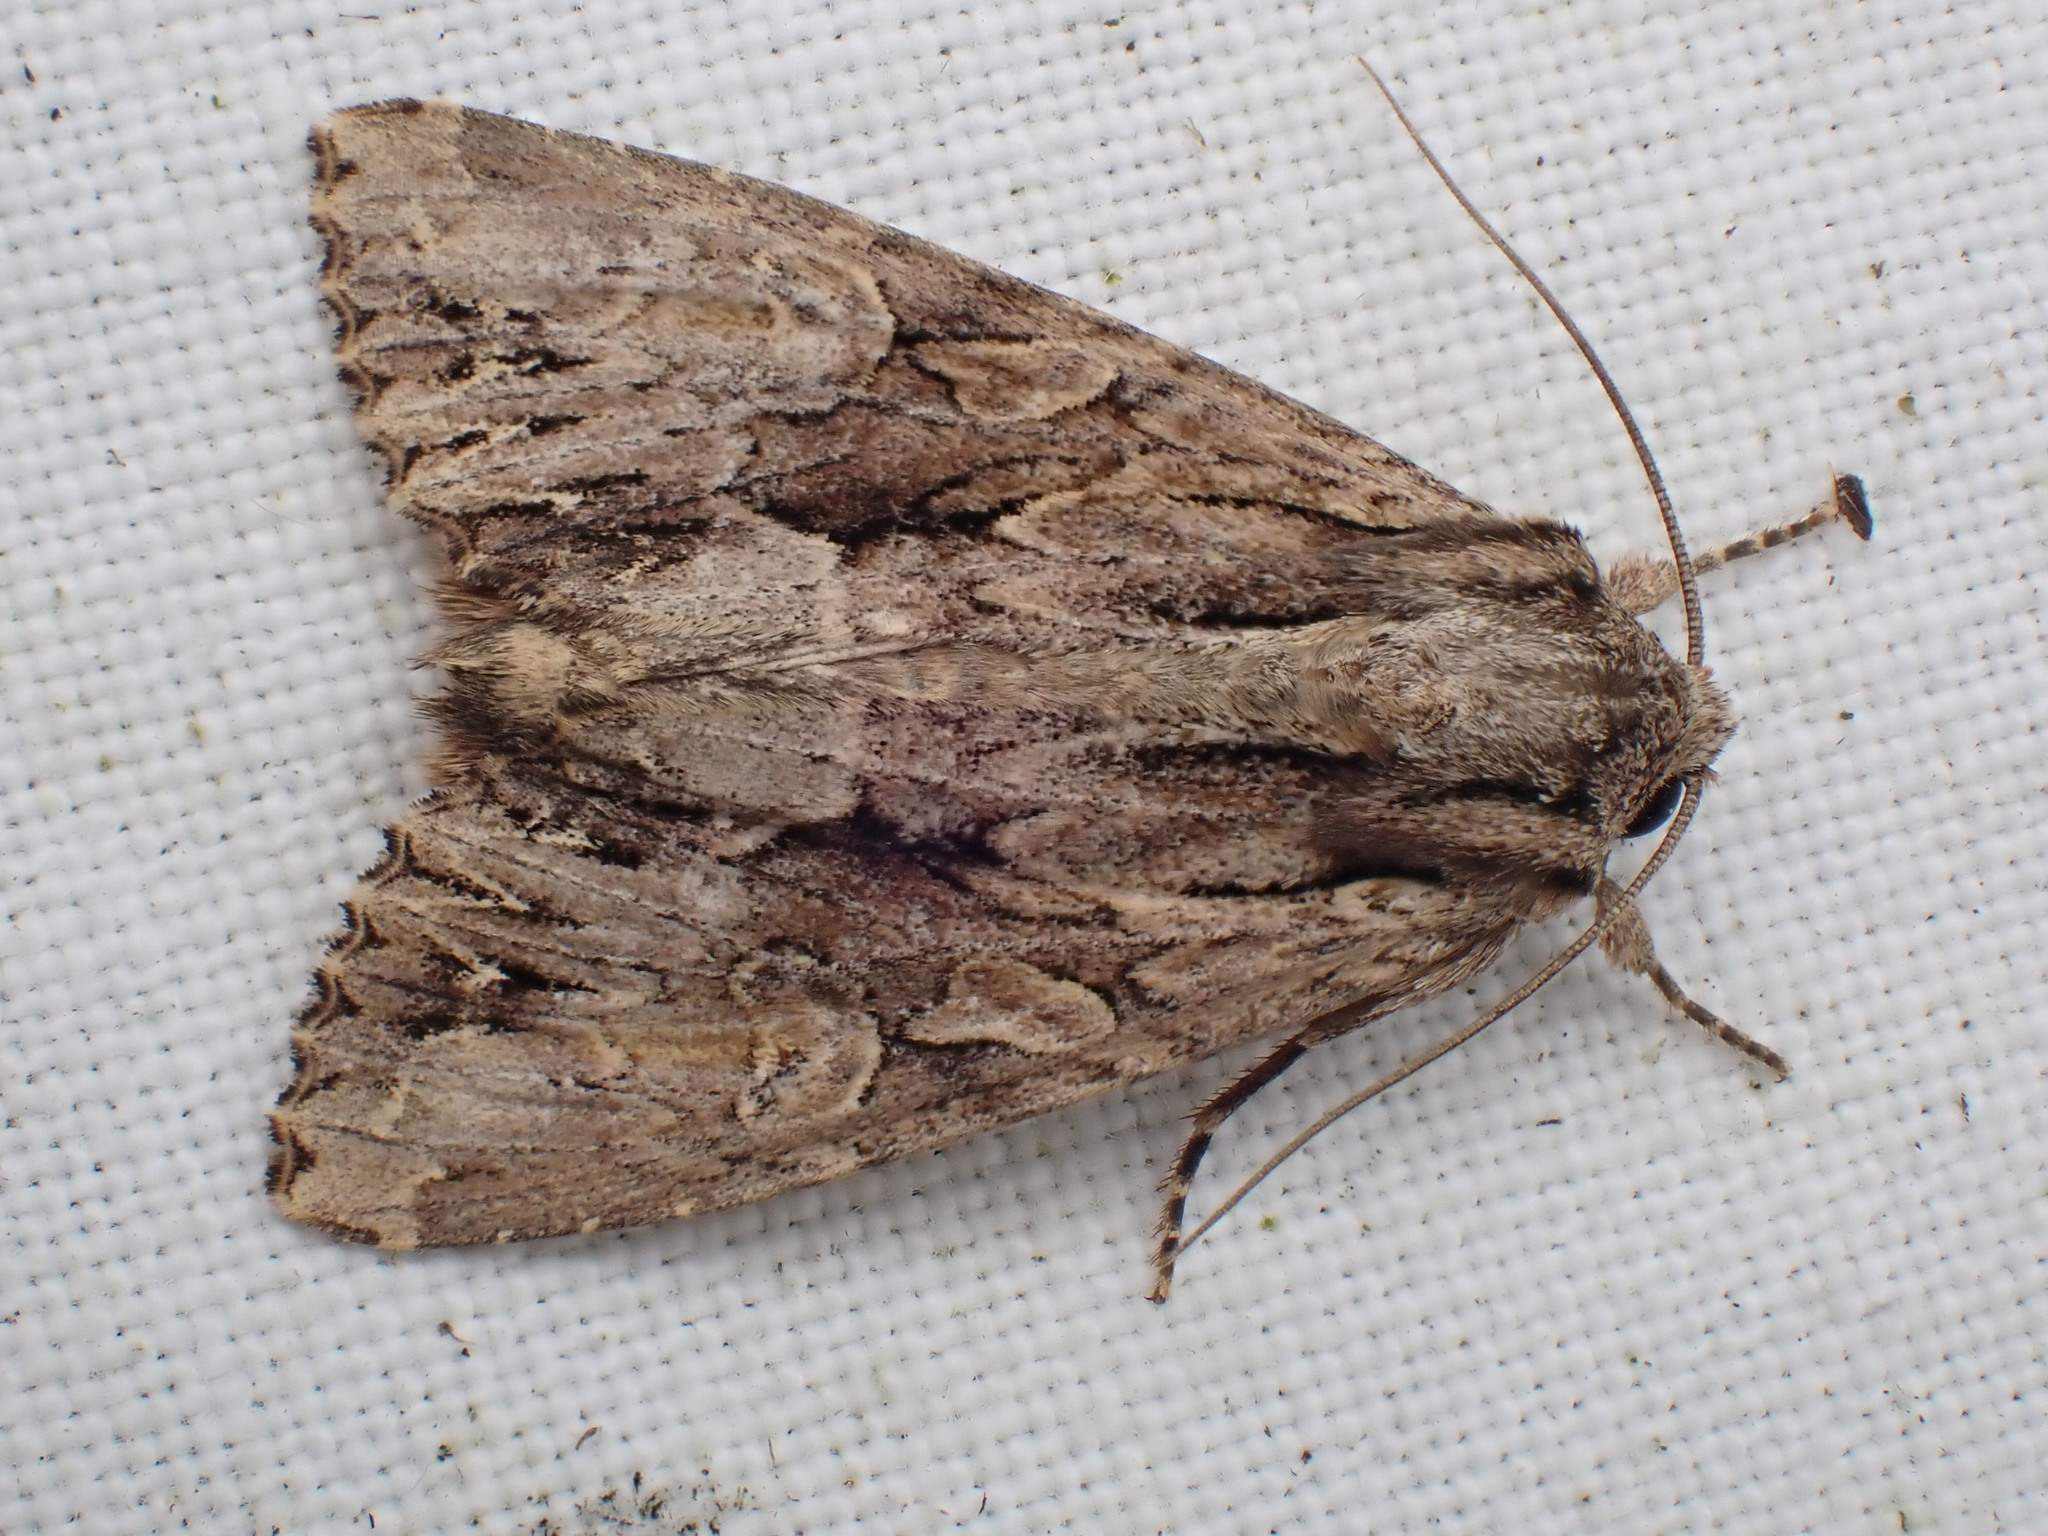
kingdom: Animalia
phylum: Arthropoda
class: Insecta
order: Lepidoptera
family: Noctuidae
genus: Apamea
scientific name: Apamea monoglypha
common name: Dark arches
